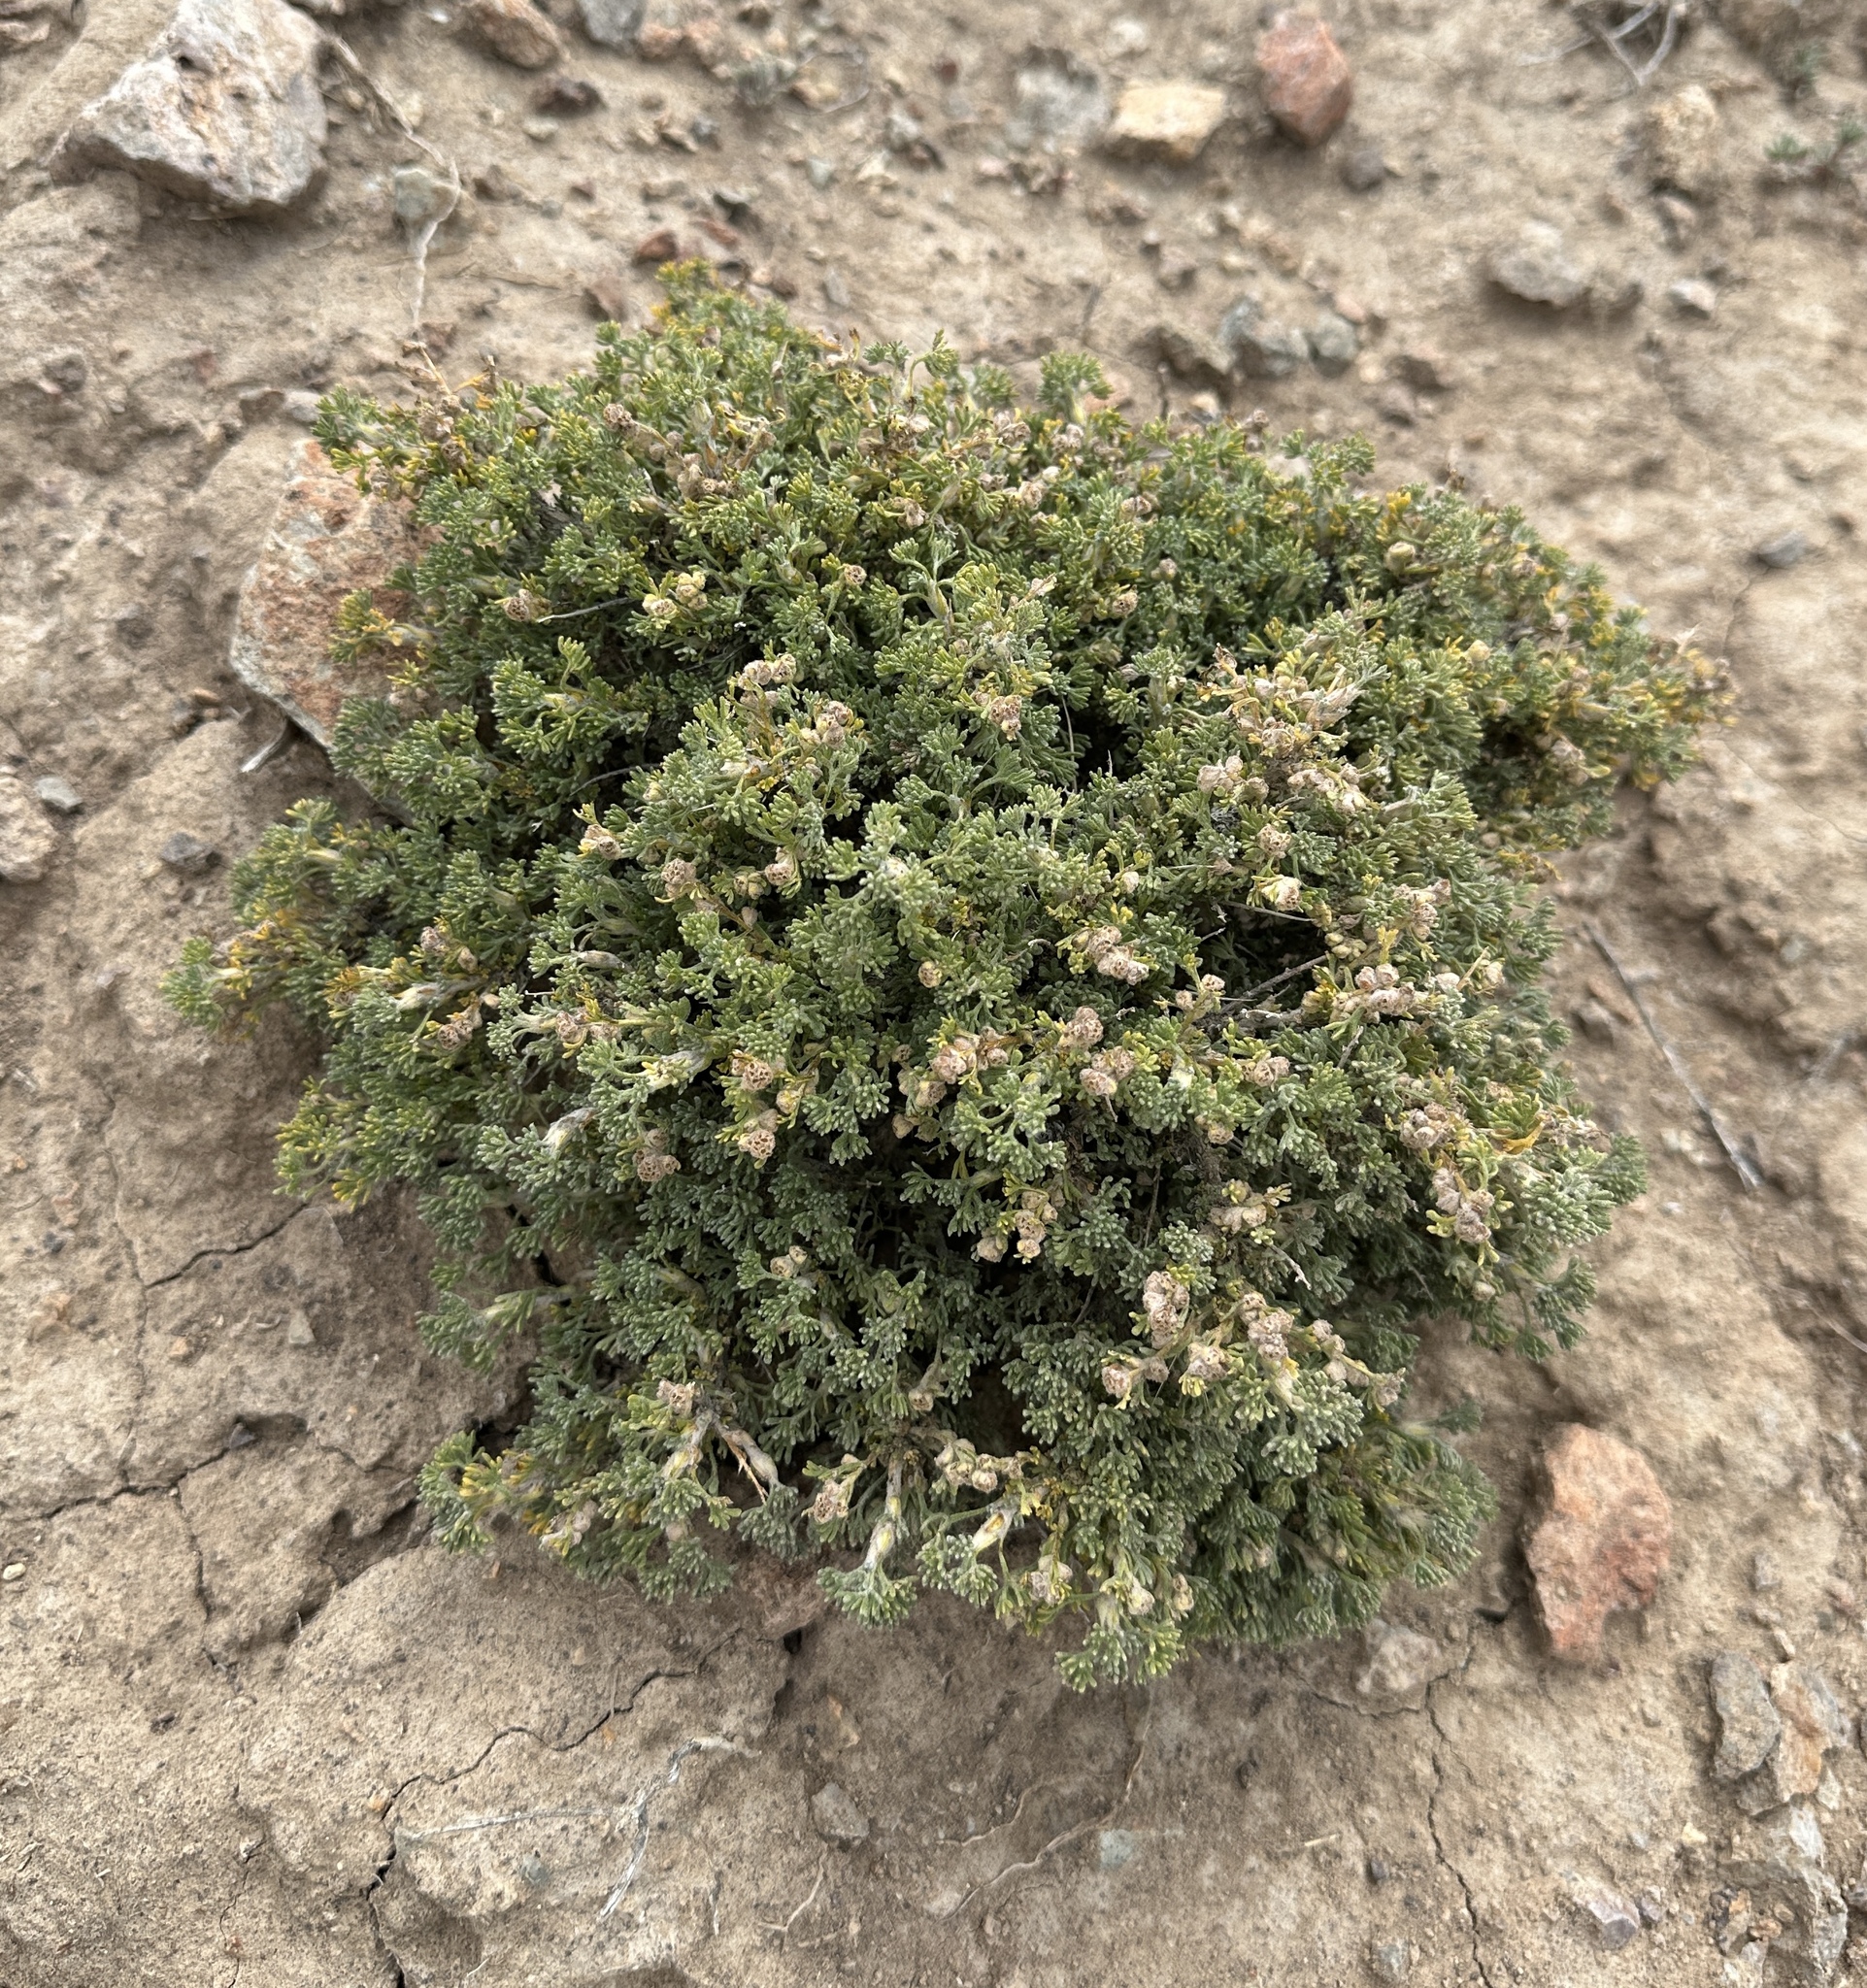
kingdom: Plantae
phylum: Tracheophyta
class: Magnoliopsida
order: Asterales
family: Asteraceae
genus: Artemisia
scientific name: Artemisia spinescens
